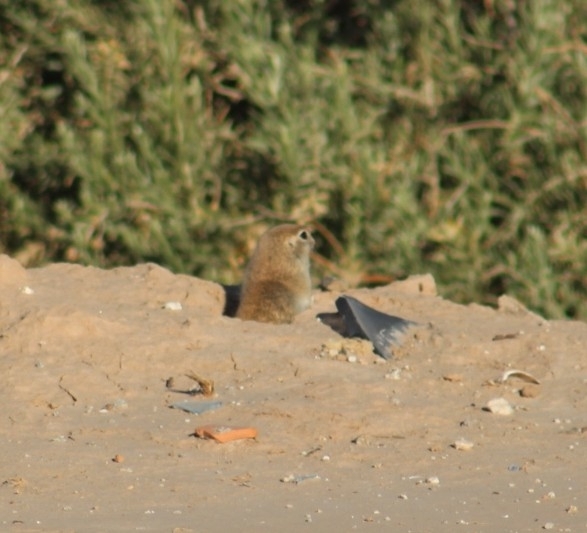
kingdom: Animalia
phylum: Chordata
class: Mammalia
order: Rodentia
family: Sciuridae
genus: Xerospermophilus
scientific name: Xerospermophilus tereticaudus
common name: Round-tailed ground squirrel
